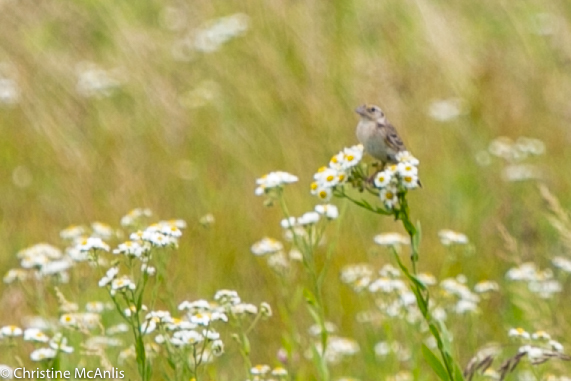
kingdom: Animalia
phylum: Chordata
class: Aves
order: Passeriformes
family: Passerellidae
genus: Ammodramus
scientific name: Ammodramus savannarum
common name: Grasshopper sparrow
